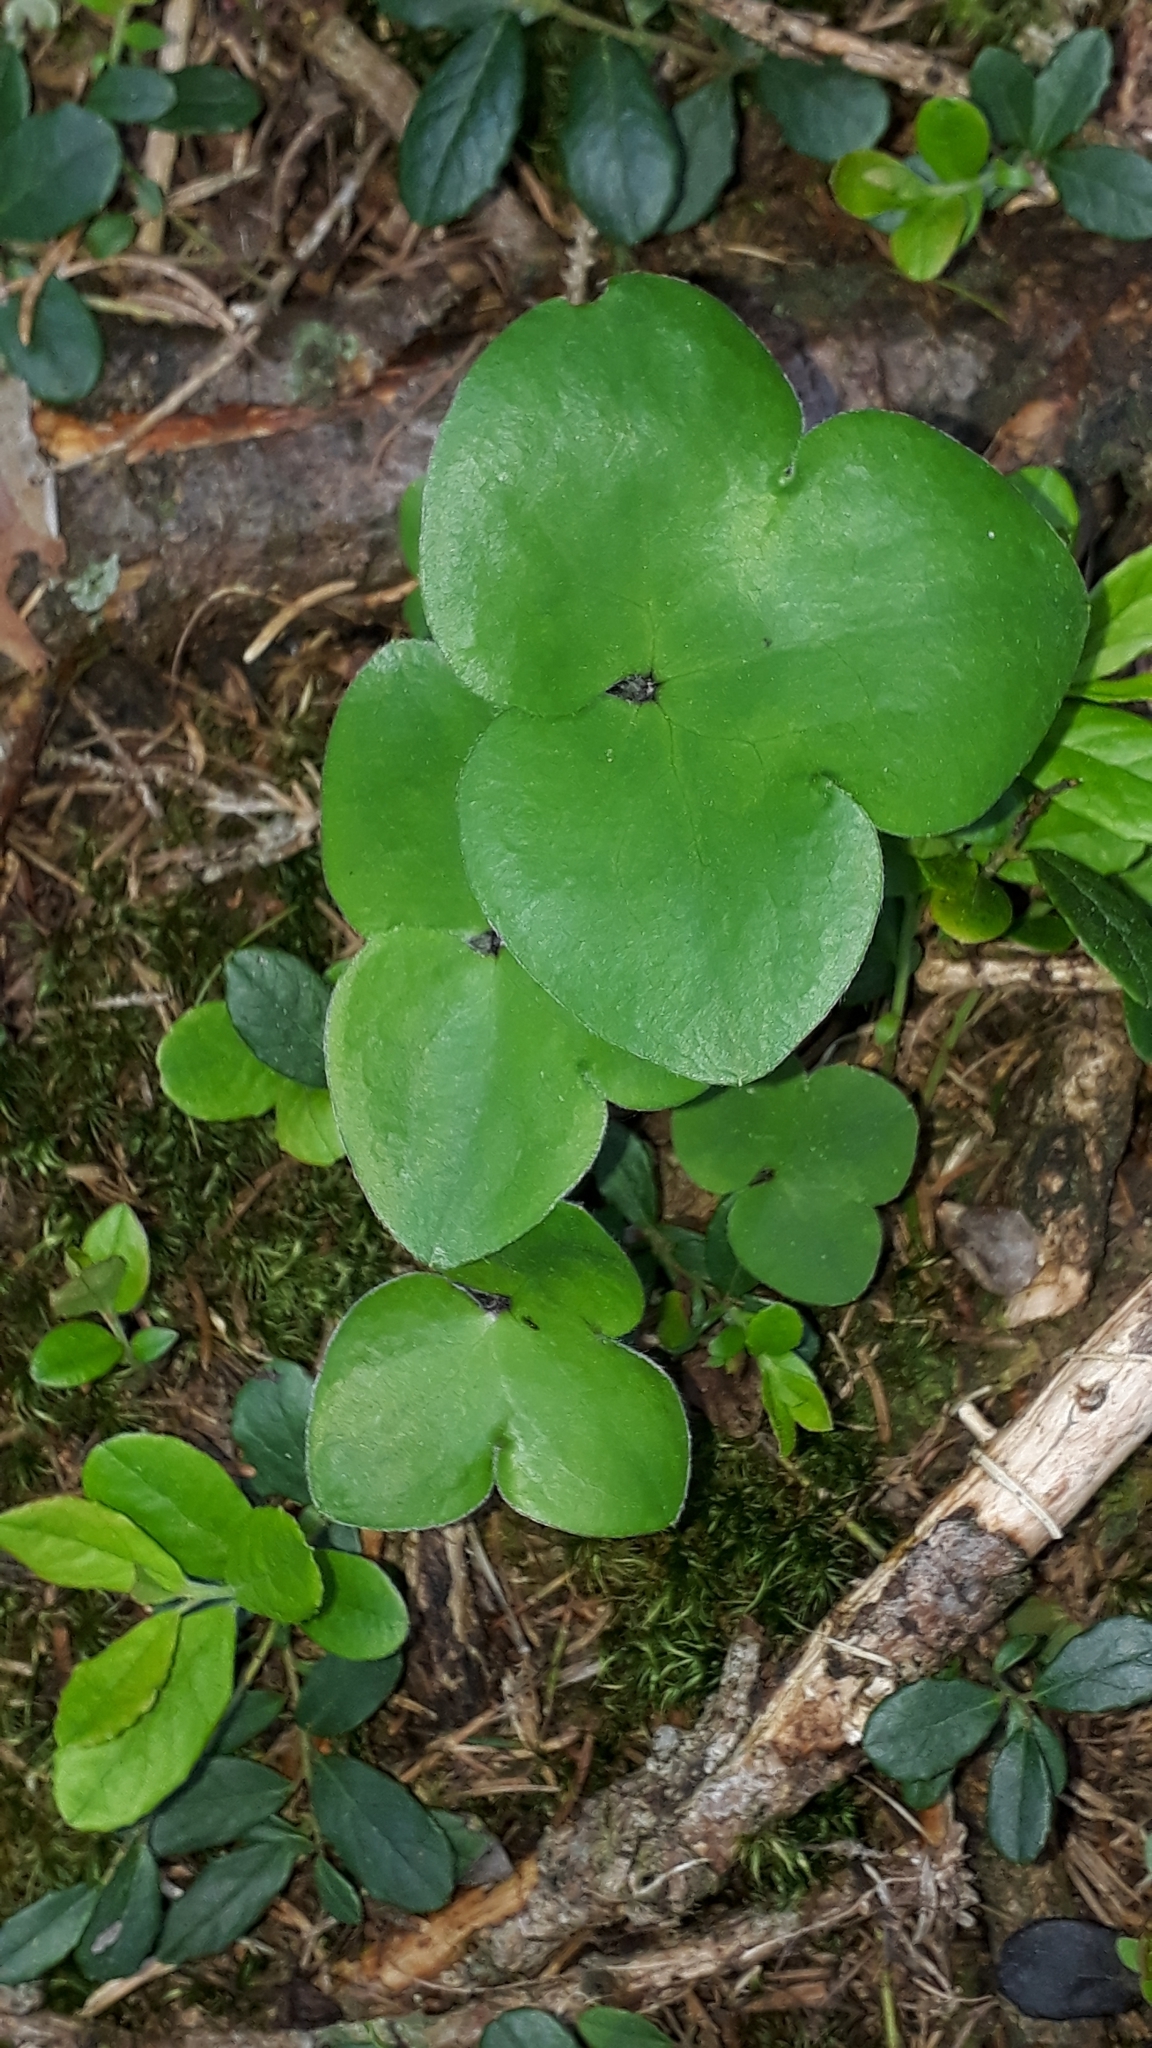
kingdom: Plantae
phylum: Tracheophyta
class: Magnoliopsida
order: Ranunculales
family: Ranunculaceae
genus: Hepatica
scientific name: Hepatica nobilis
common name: Liverleaf
